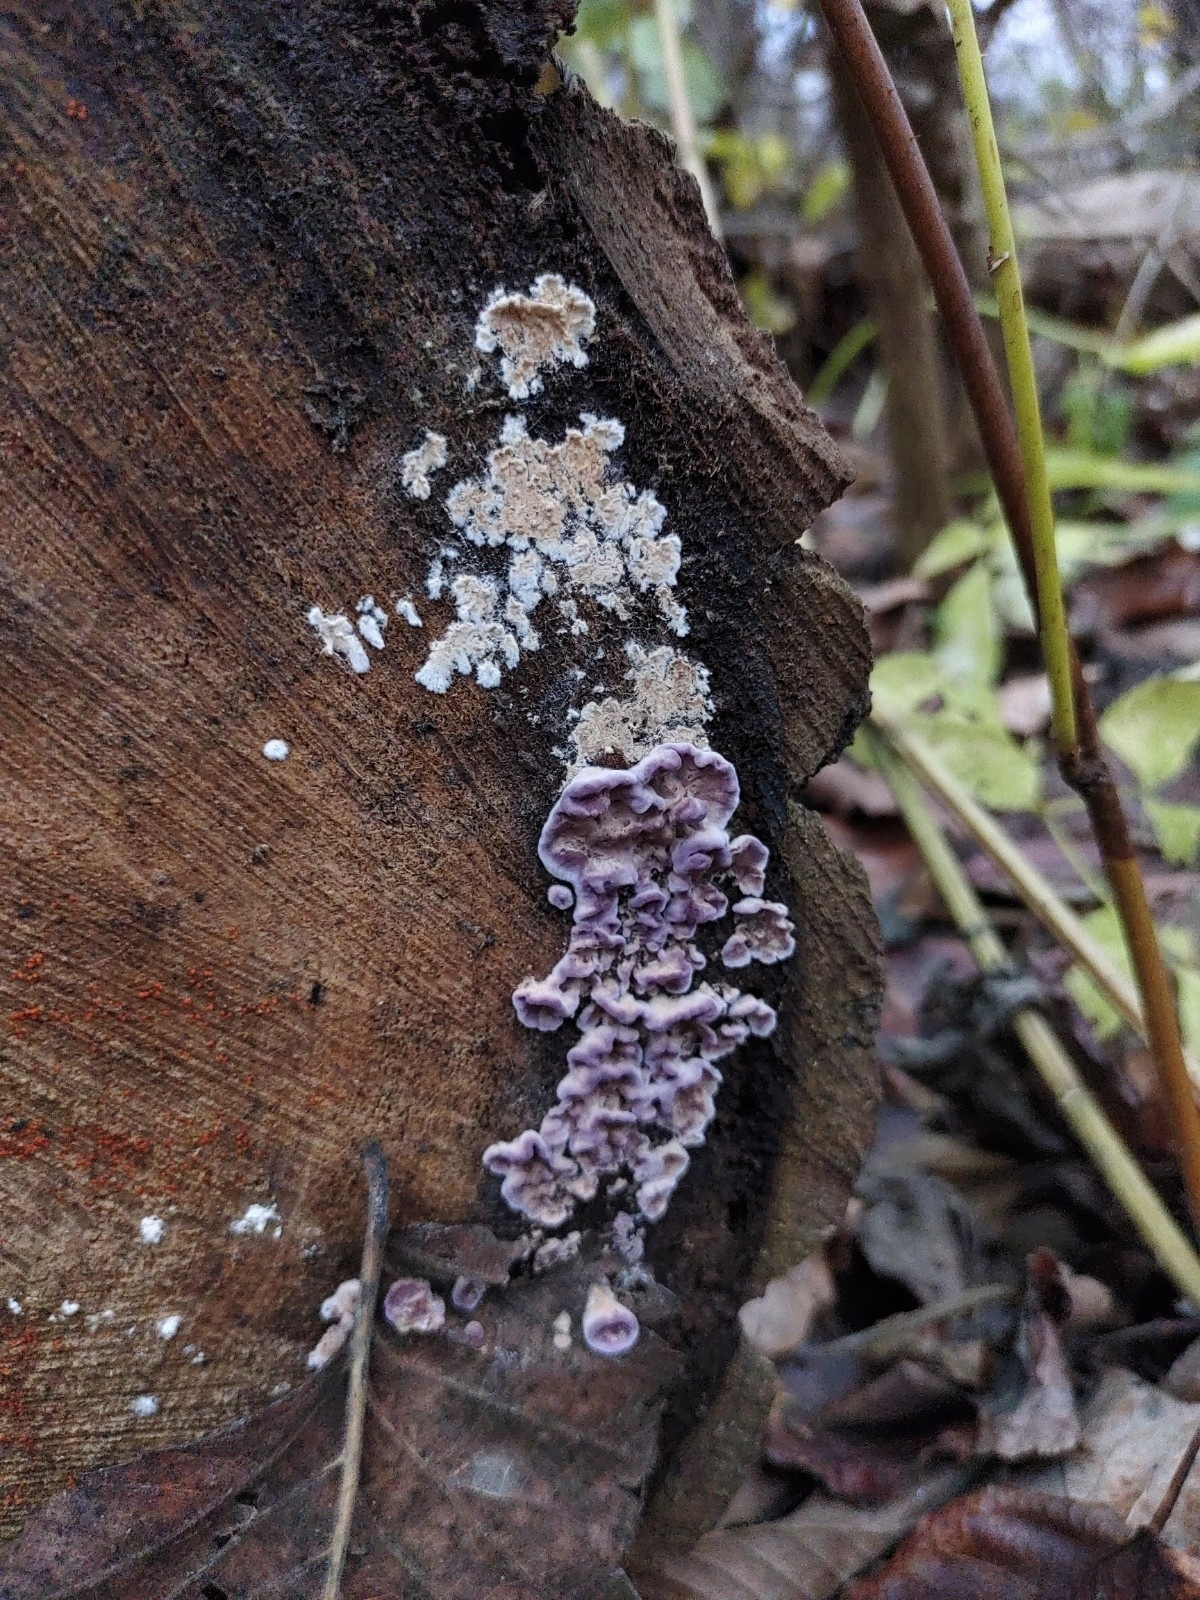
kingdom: Fungi
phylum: Basidiomycota
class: Agaricomycetes
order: Agaricales
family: Cyphellaceae
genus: Chondrostereum
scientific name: Chondrostereum purpureum
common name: Silver leaf disease
